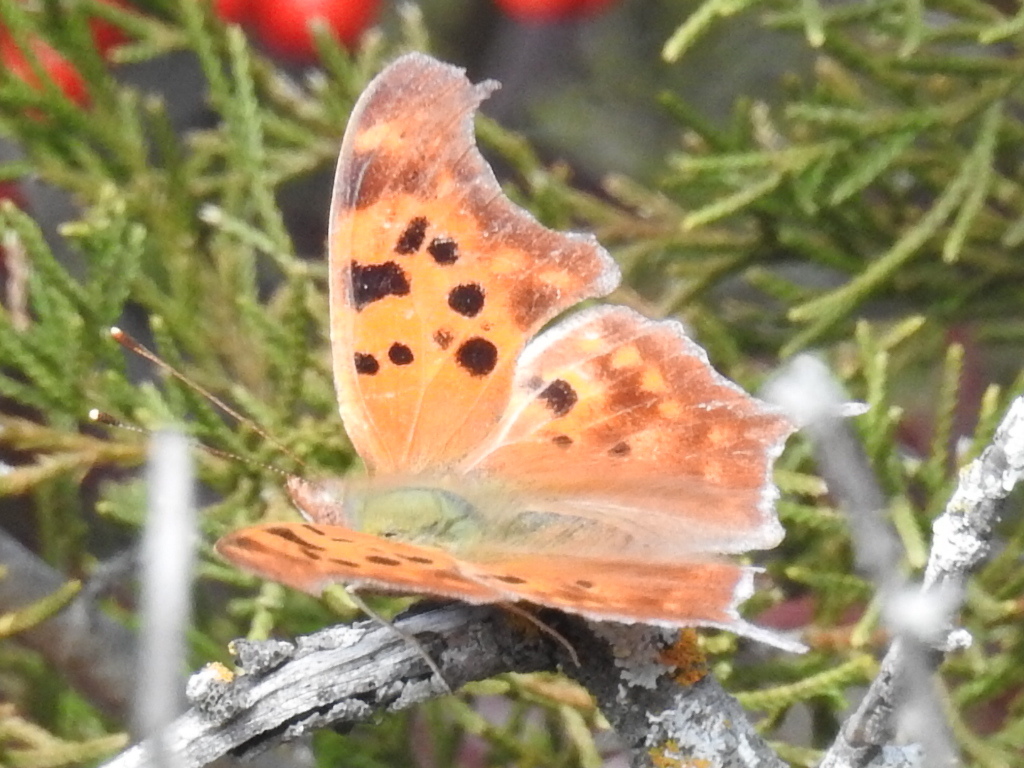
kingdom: Animalia
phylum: Arthropoda
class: Insecta
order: Lepidoptera
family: Nymphalidae
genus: Polygonia
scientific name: Polygonia interrogationis
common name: Question mark
